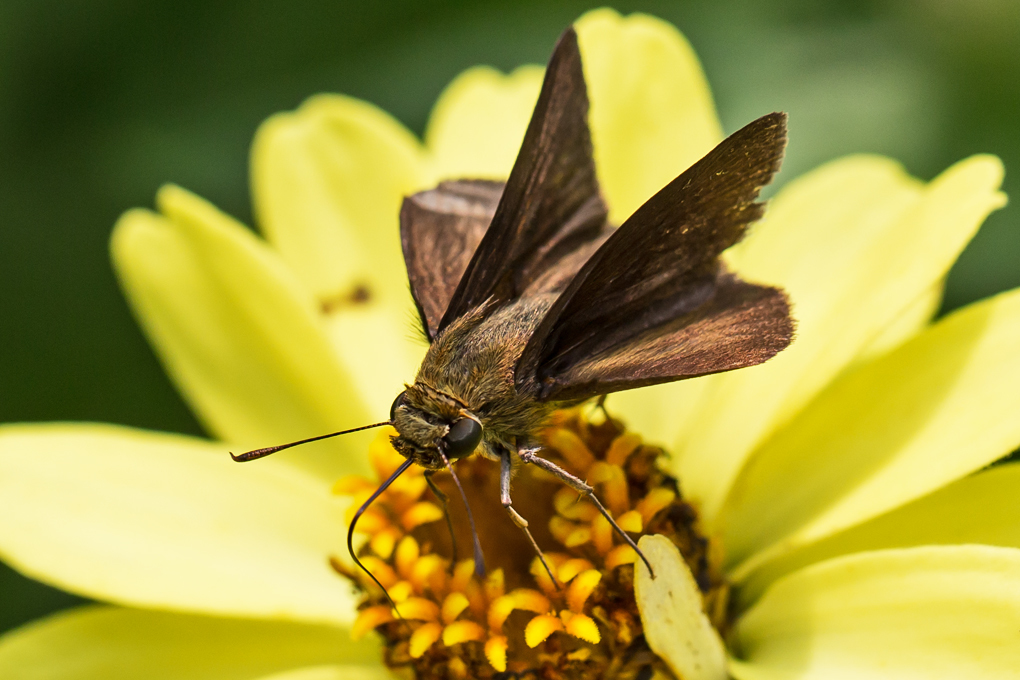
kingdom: Animalia
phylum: Arthropoda
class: Insecta
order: Lepidoptera
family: Hesperiidae
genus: Euphyes
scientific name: Euphyes vestris
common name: Dun skipper
